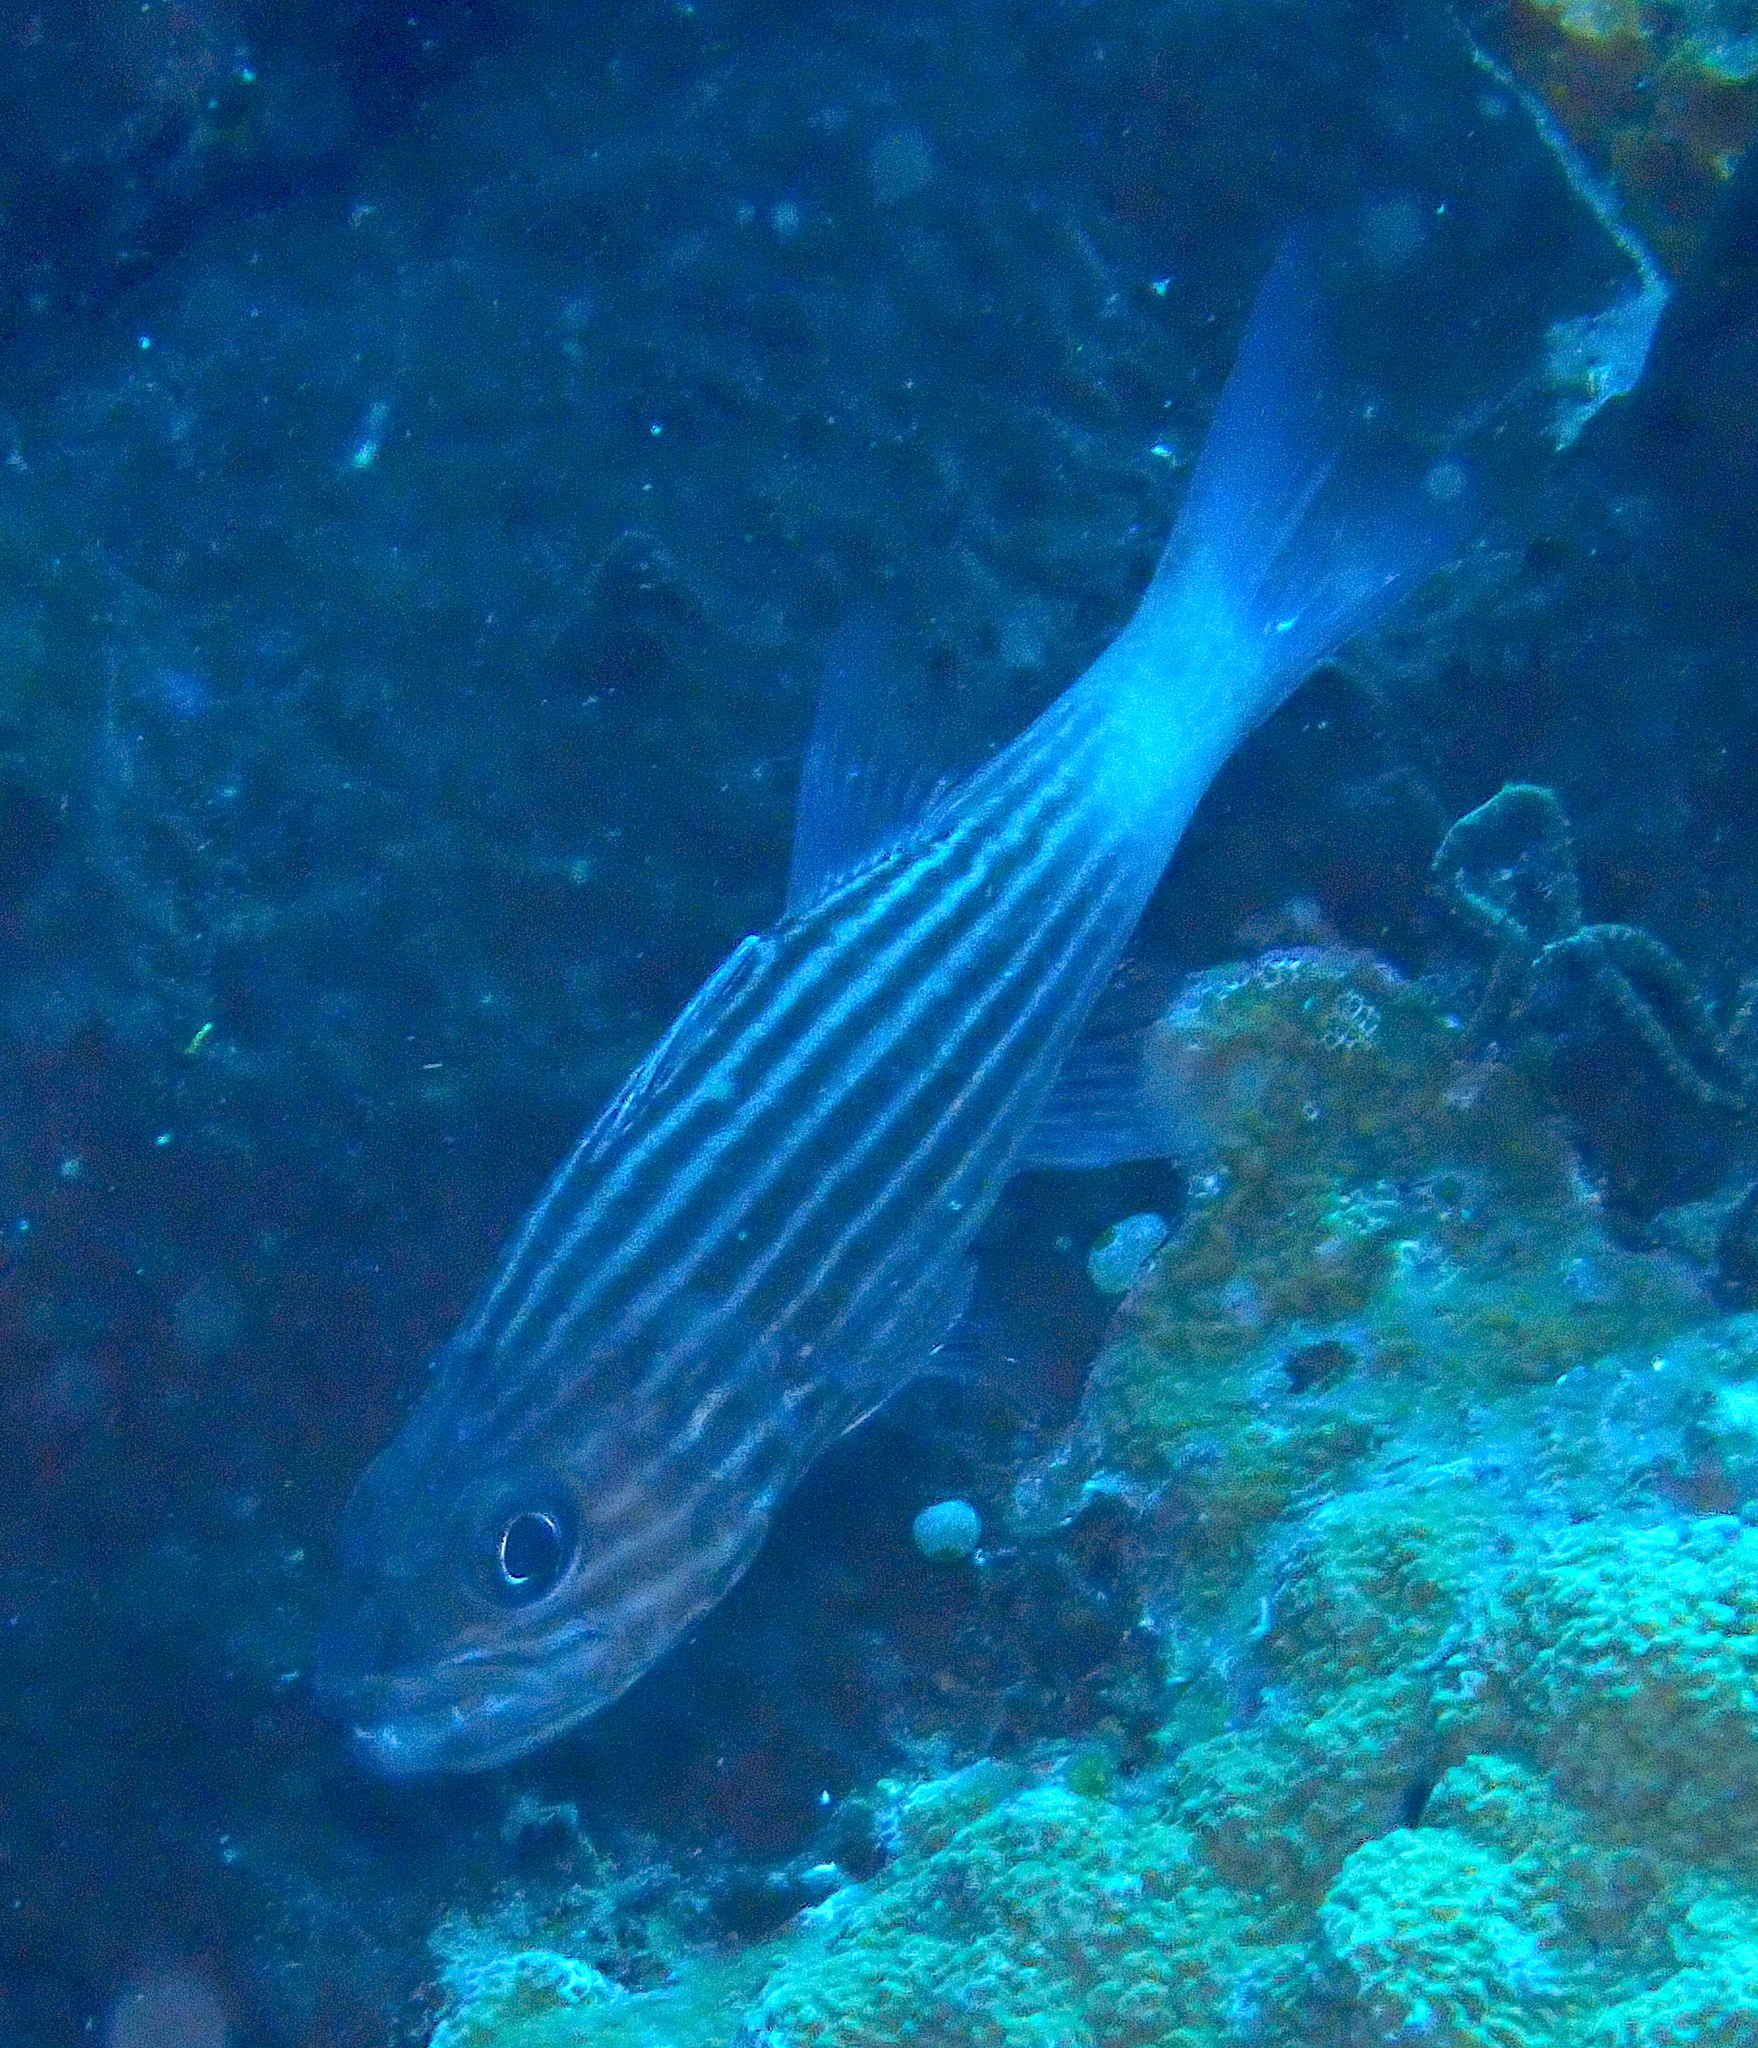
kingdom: Animalia
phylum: Chordata
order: Perciformes
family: Apogonidae
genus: Cheilodipterus
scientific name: Cheilodipterus macrodon
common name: Eight-lined cardinalfish
